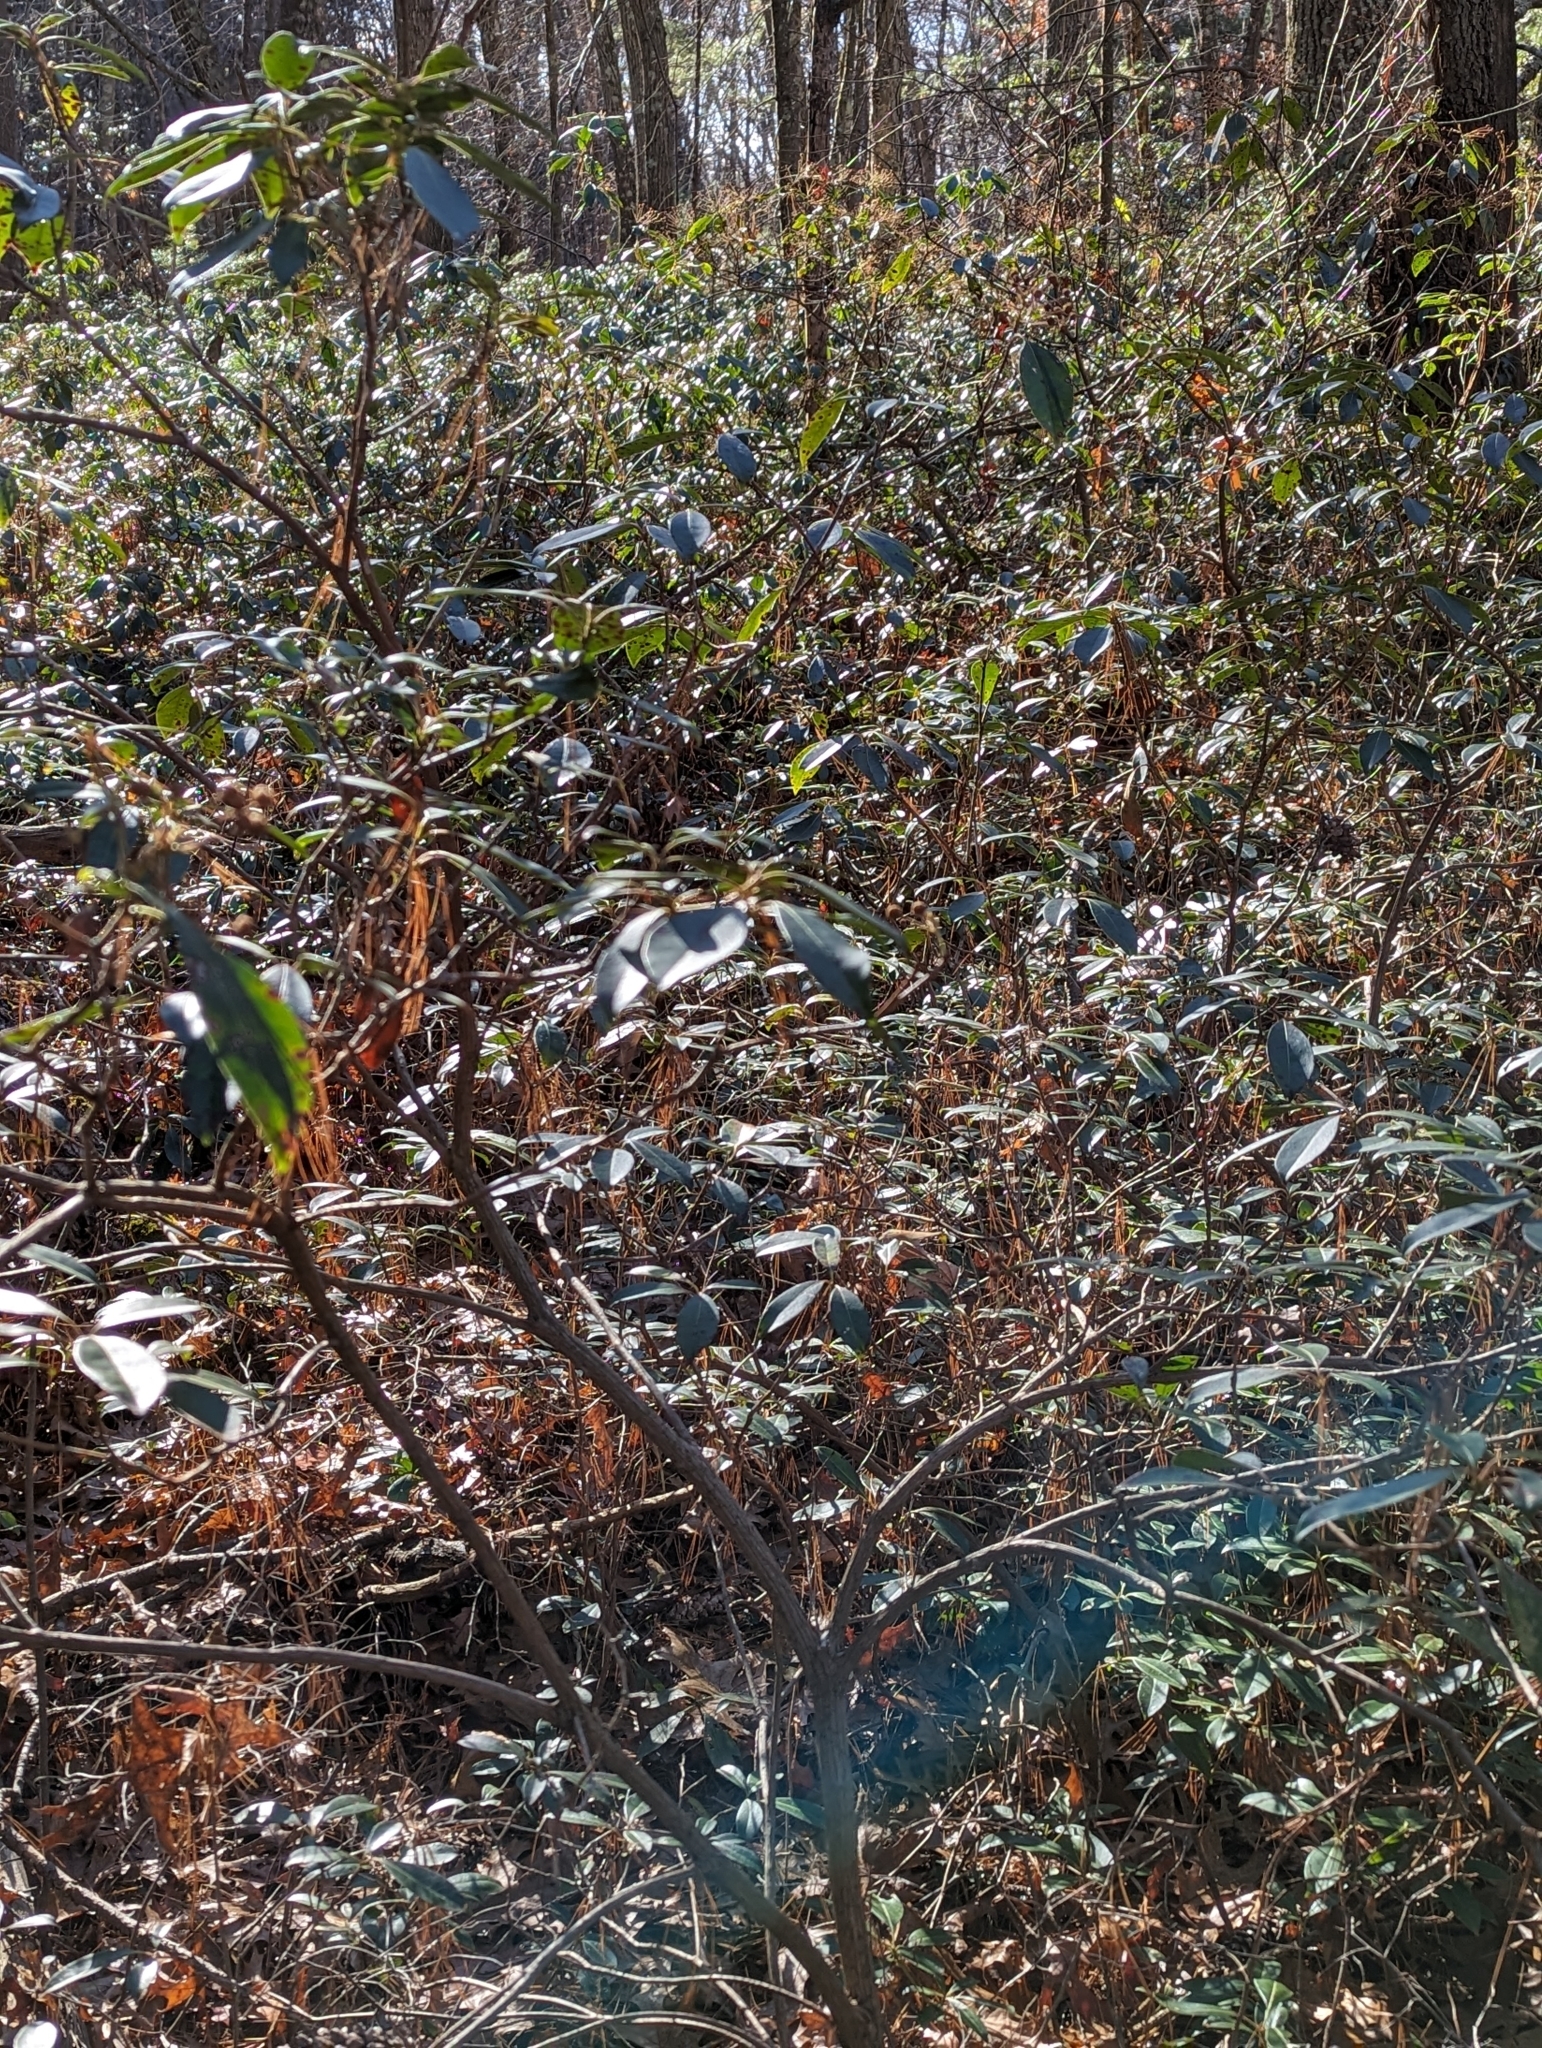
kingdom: Plantae
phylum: Tracheophyta
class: Magnoliopsida
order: Ericales
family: Ericaceae
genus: Kalmia
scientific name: Kalmia latifolia
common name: Mountain-laurel
